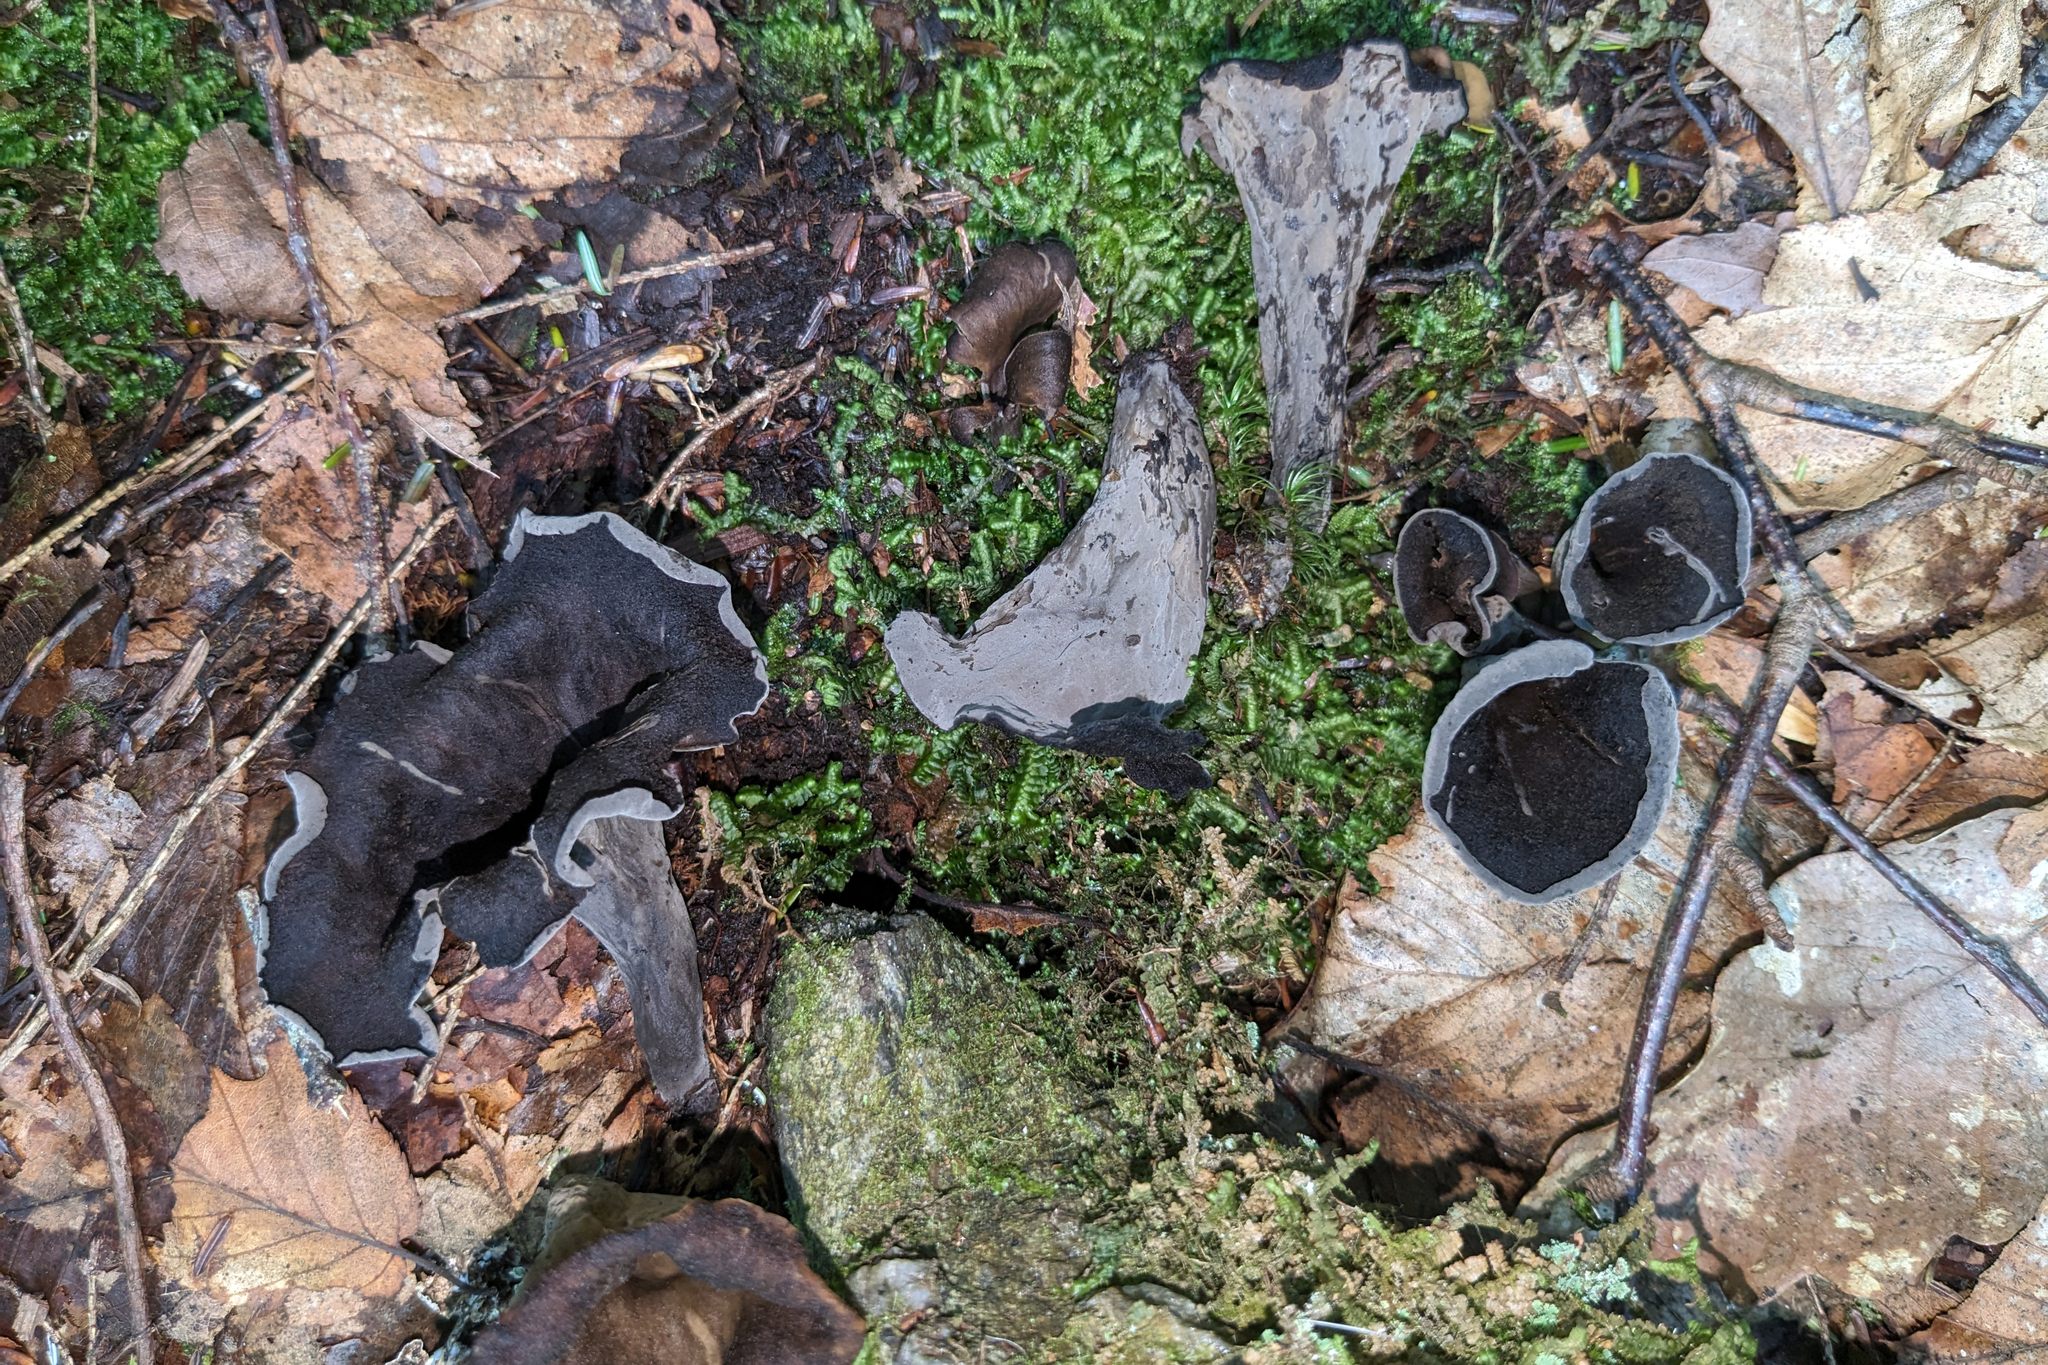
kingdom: Fungi
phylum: Basidiomycota
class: Agaricomycetes
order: Cantharellales
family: Hydnaceae
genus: Craterellus
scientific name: Craterellus cornucopioides
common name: Horn of plenty
